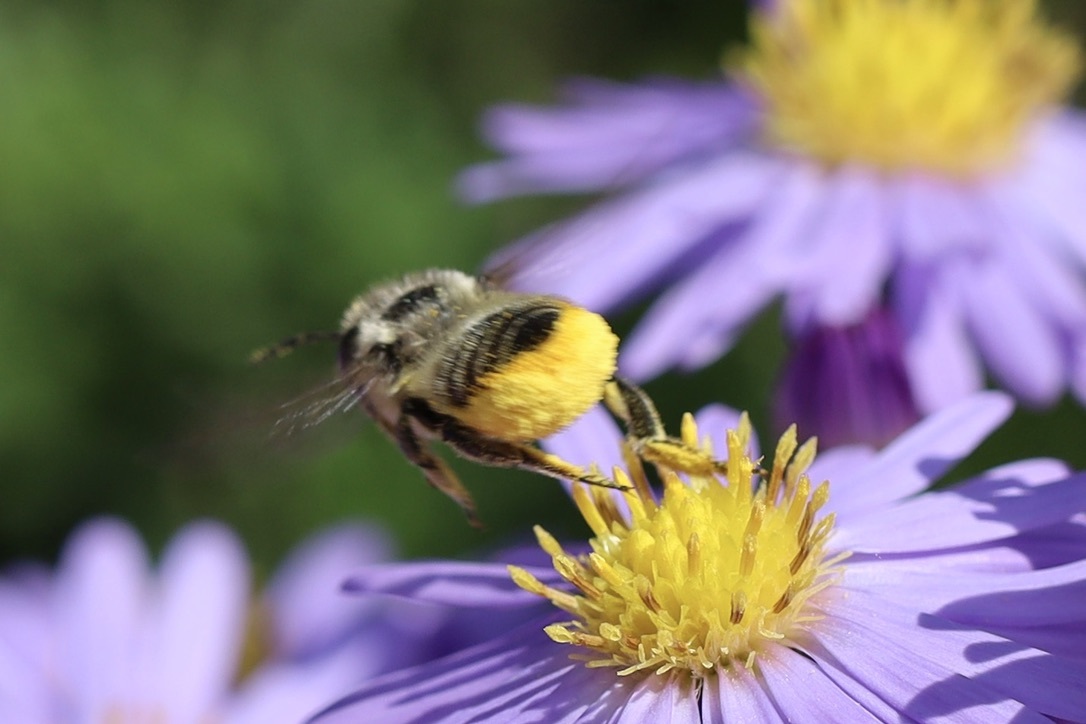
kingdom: Animalia
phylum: Arthropoda
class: Insecta
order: Hymenoptera
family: Megachilidae
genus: Megachile
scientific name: Megachile perihirta
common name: Western leafcutter
